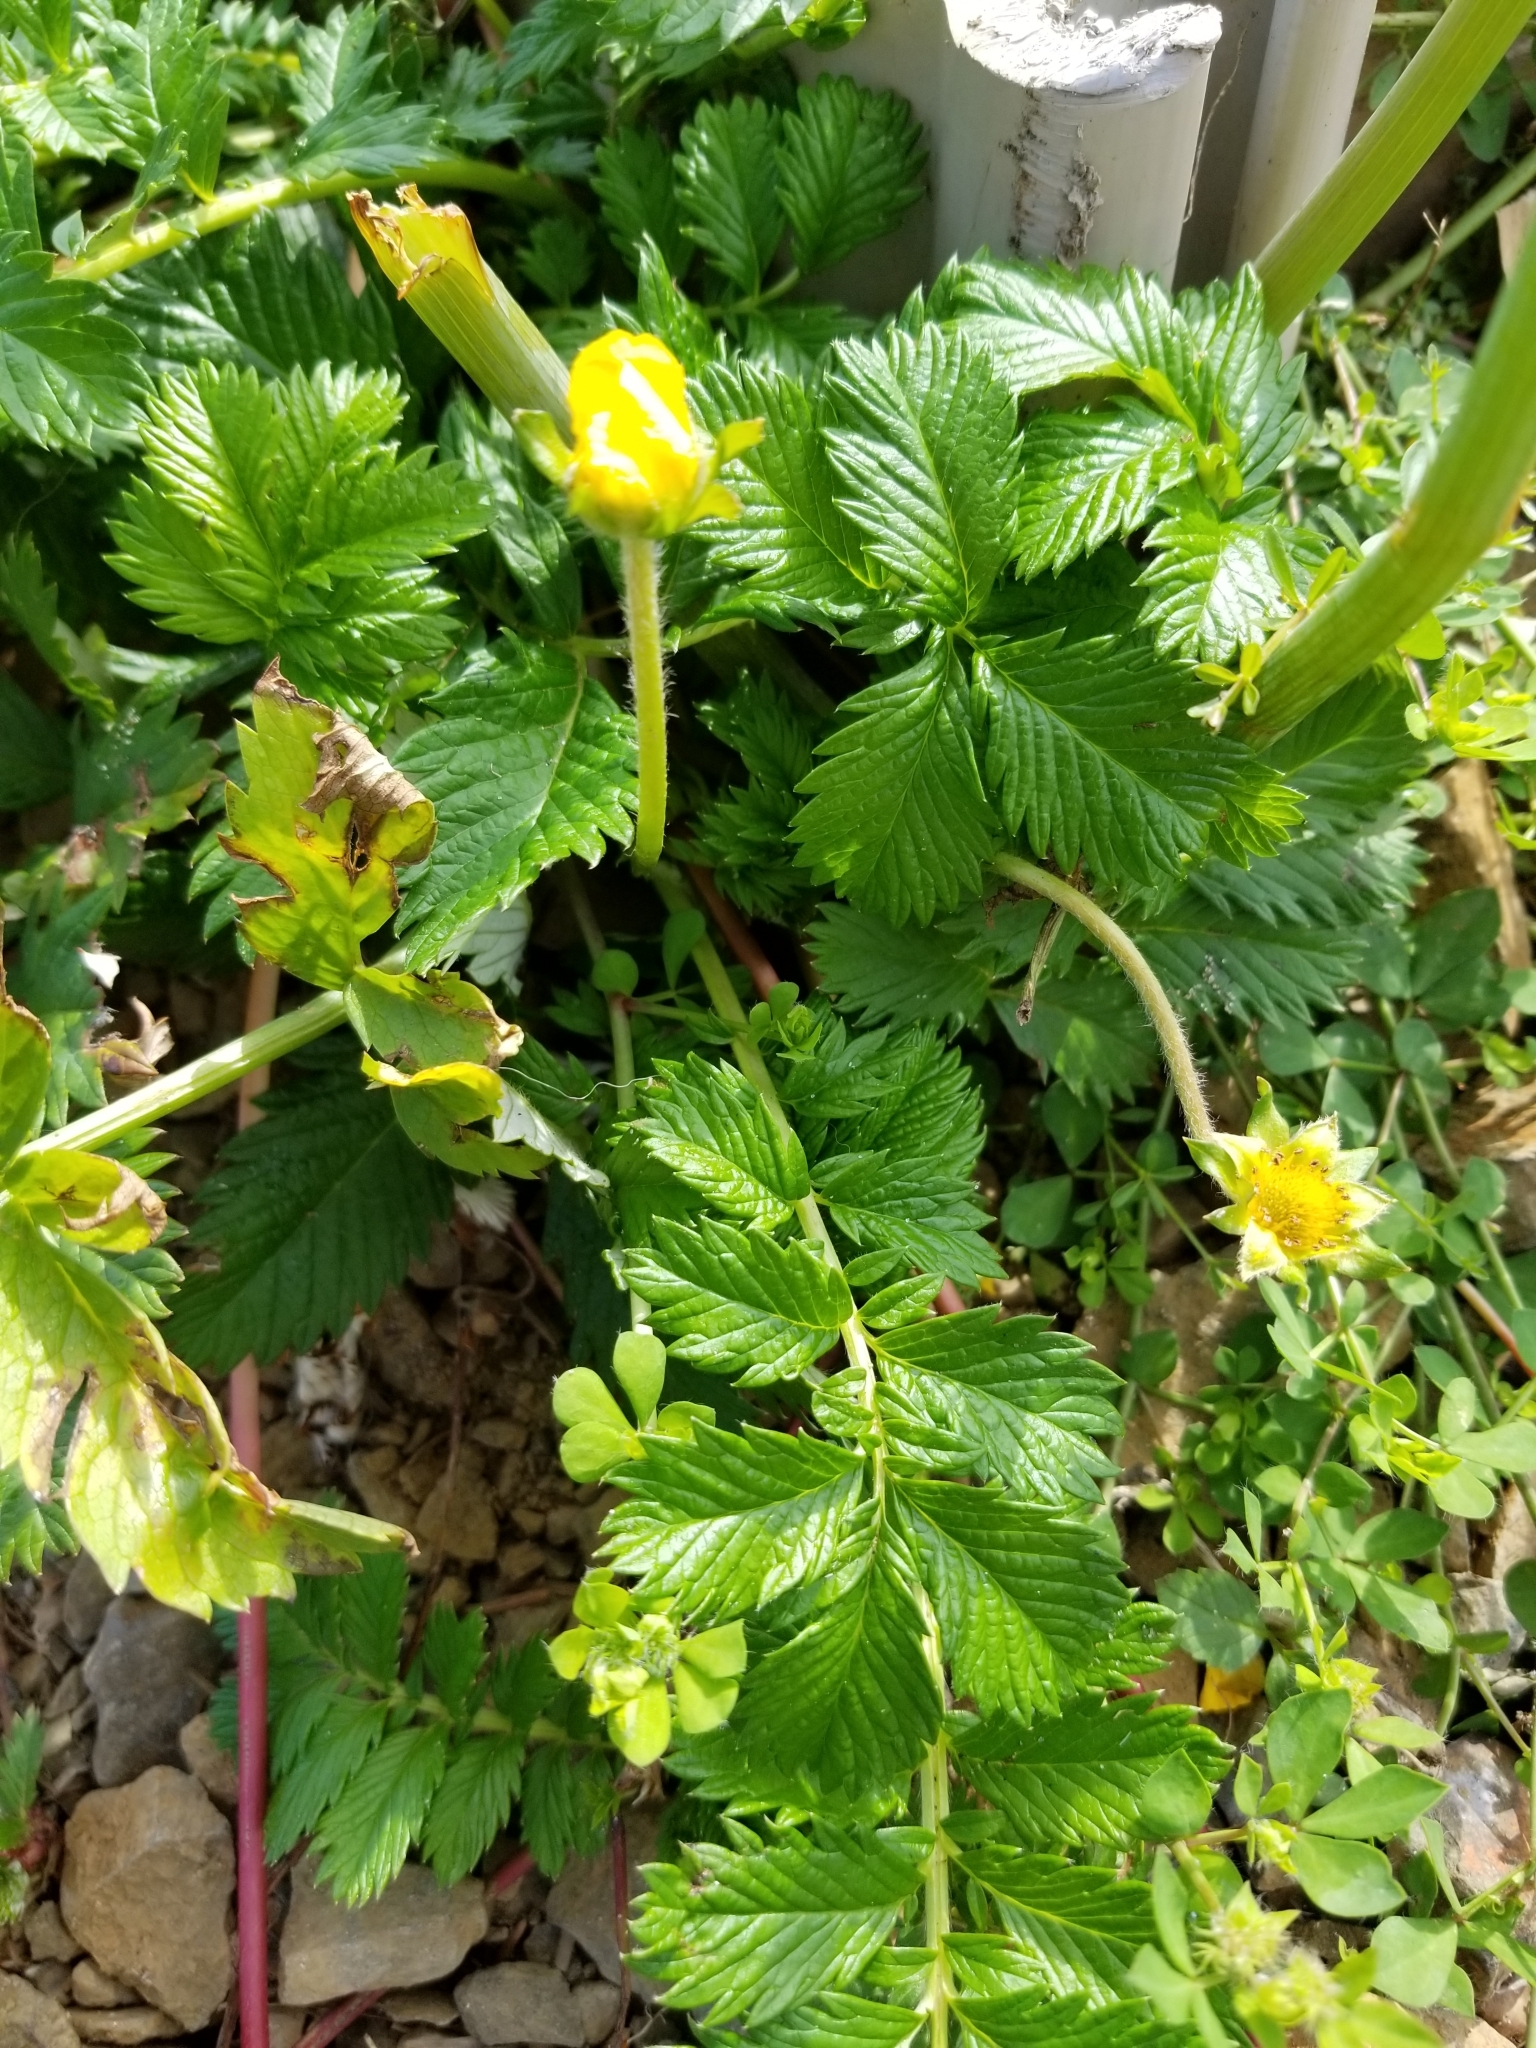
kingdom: Plantae
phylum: Tracheophyta
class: Magnoliopsida
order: Rosales
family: Rosaceae
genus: Argentina
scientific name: Argentina anserina
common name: Common silverweed
